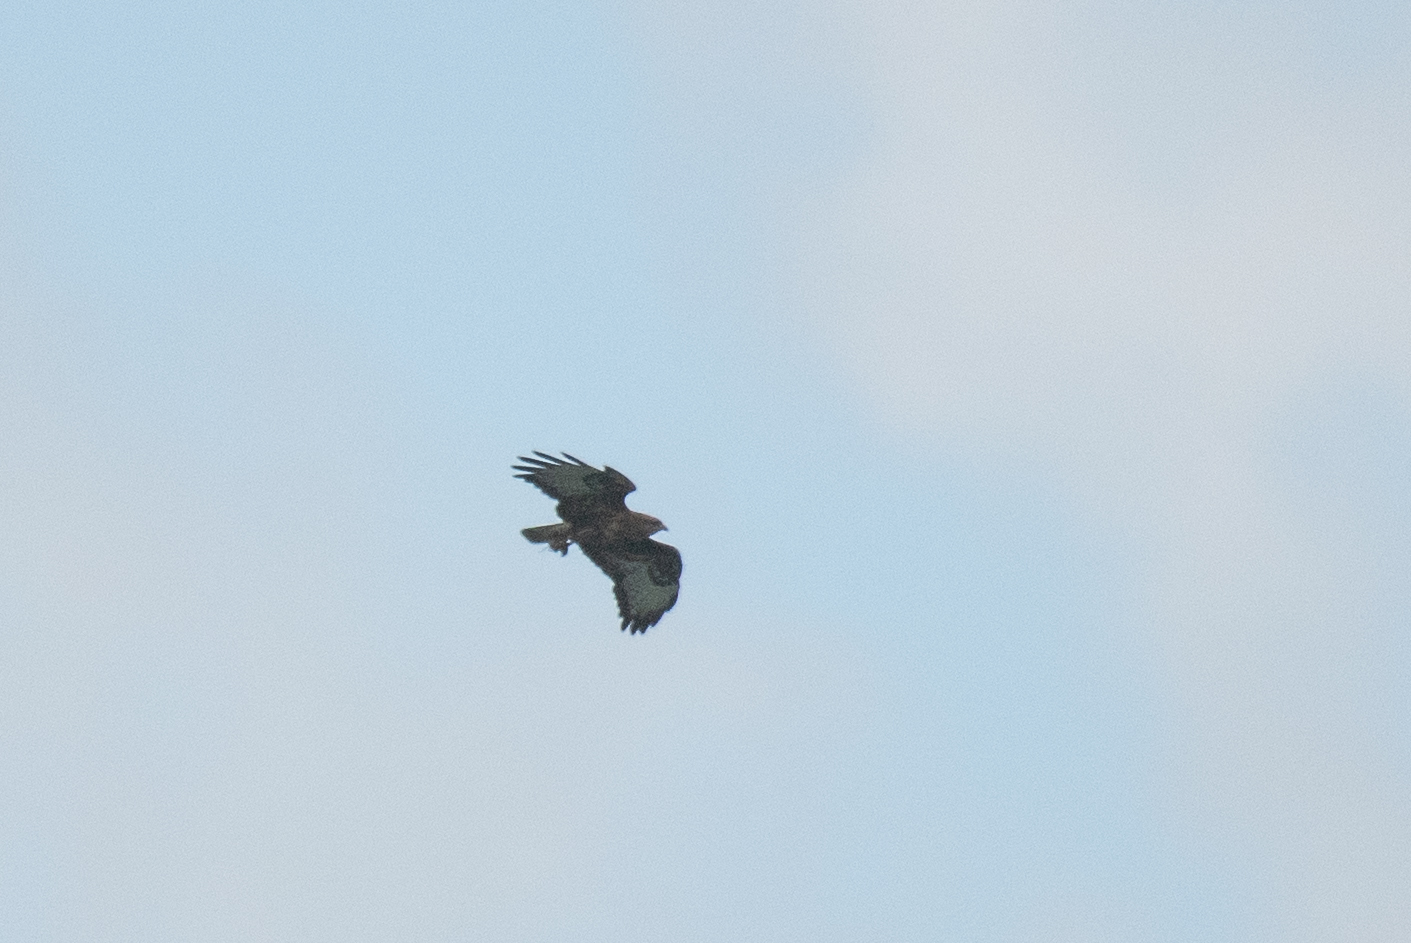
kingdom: Animalia
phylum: Chordata
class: Aves
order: Accipitriformes
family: Accipitridae
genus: Buteo
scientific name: Buteo buteo
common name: Common buzzard
